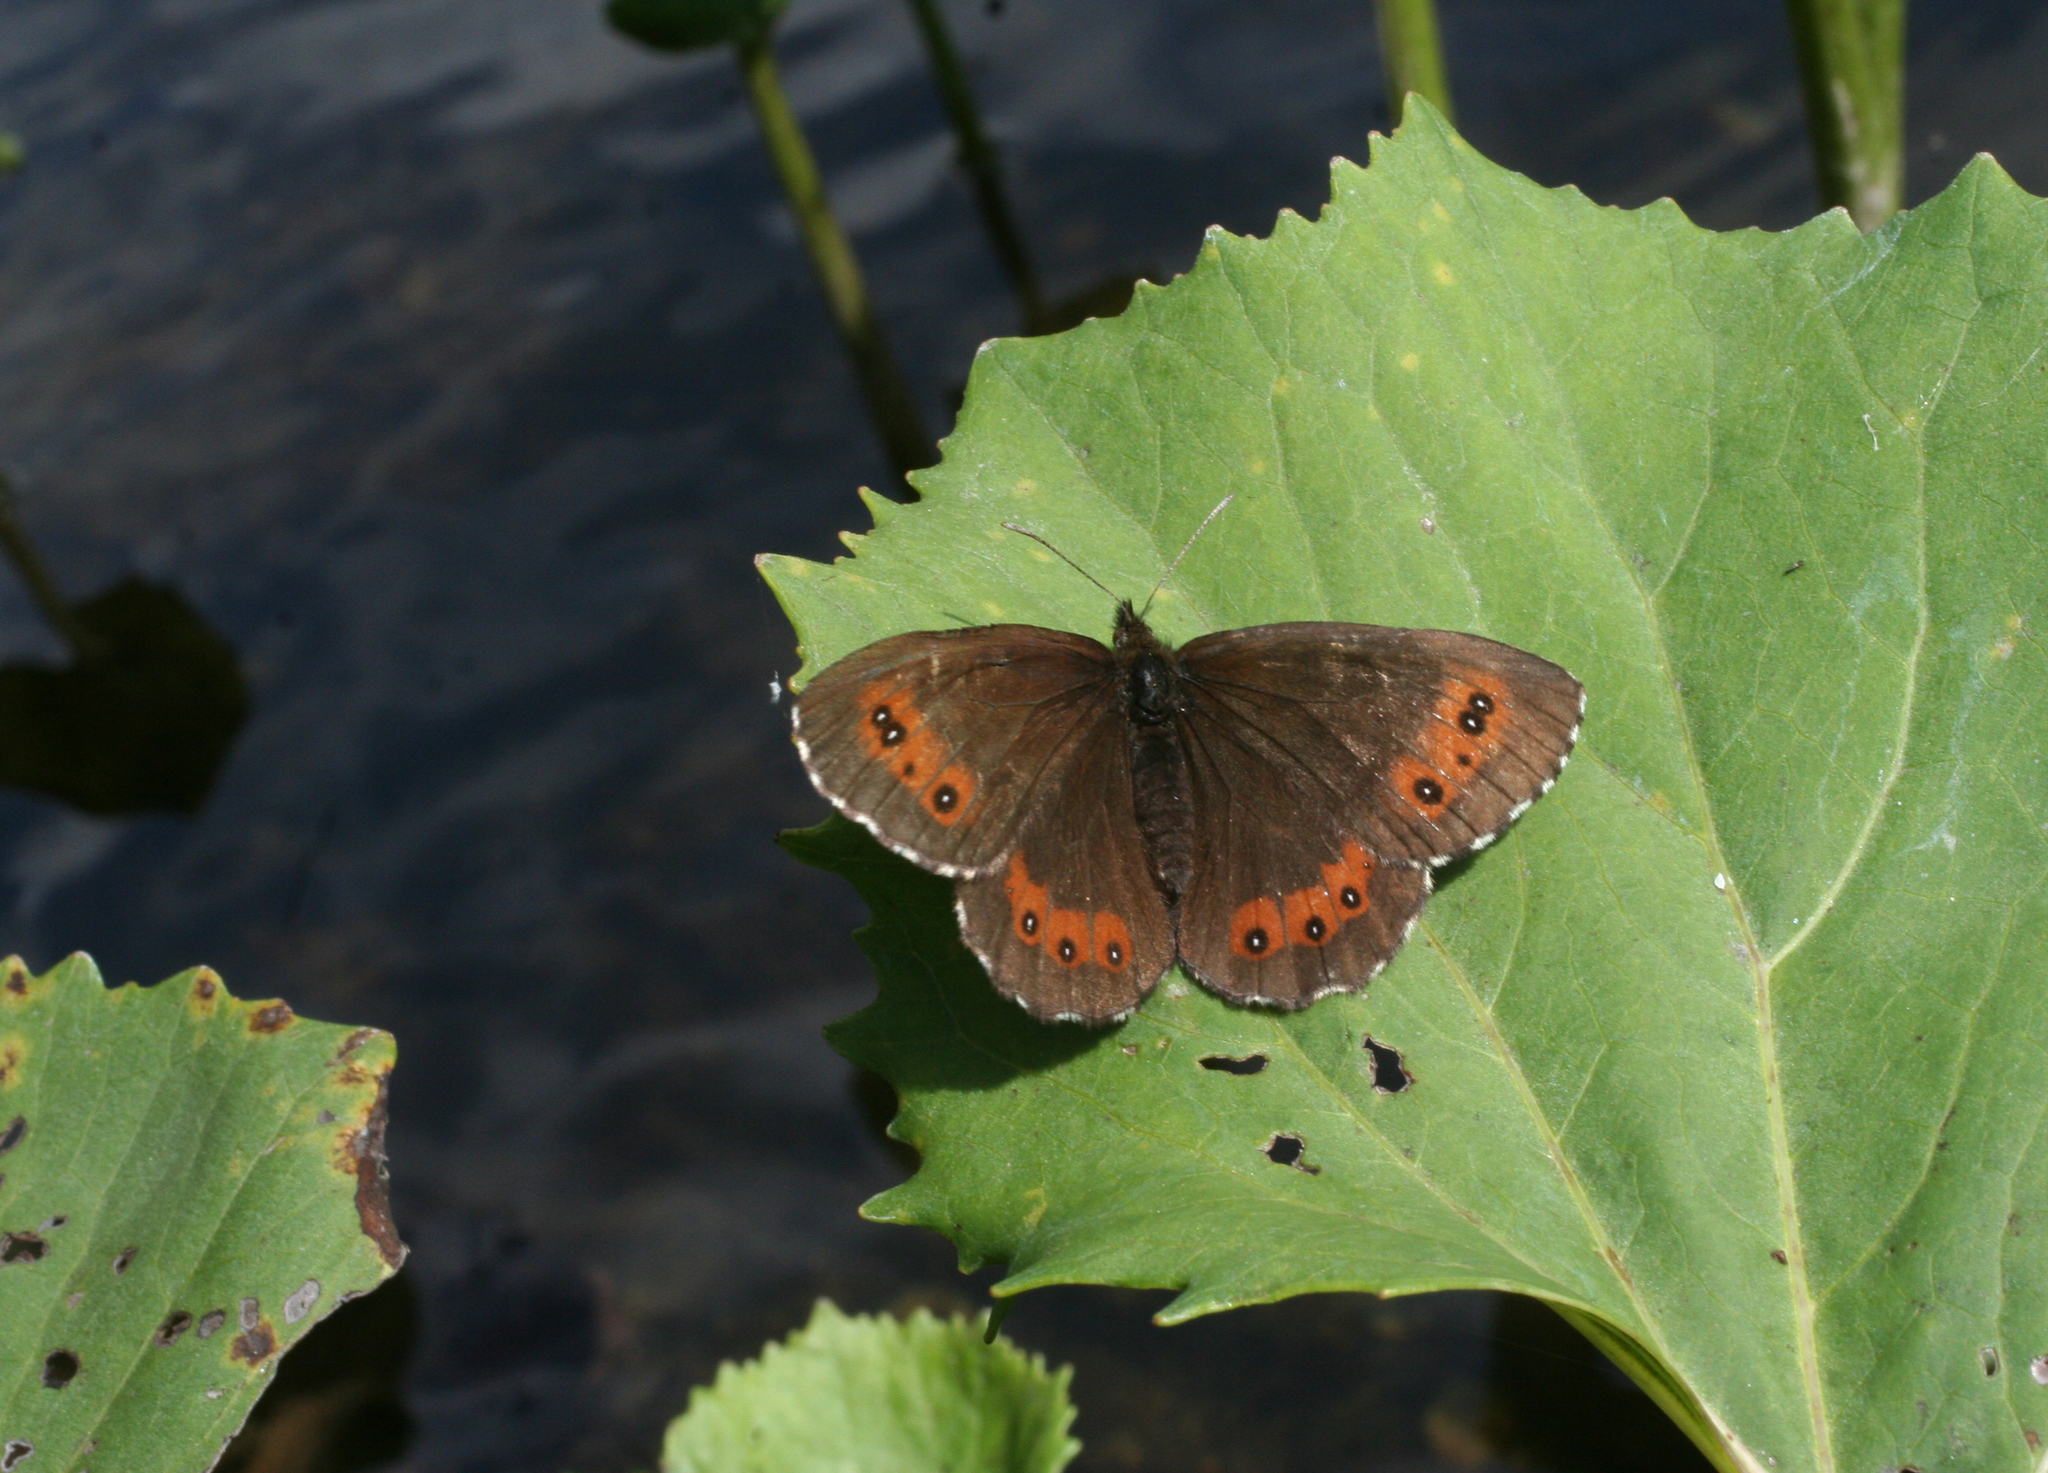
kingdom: Animalia
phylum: Arthropoda
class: Insecta
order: Lepidoptera
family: Nymphalidae
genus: Erebia
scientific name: Erebia ligea
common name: Arran brown
